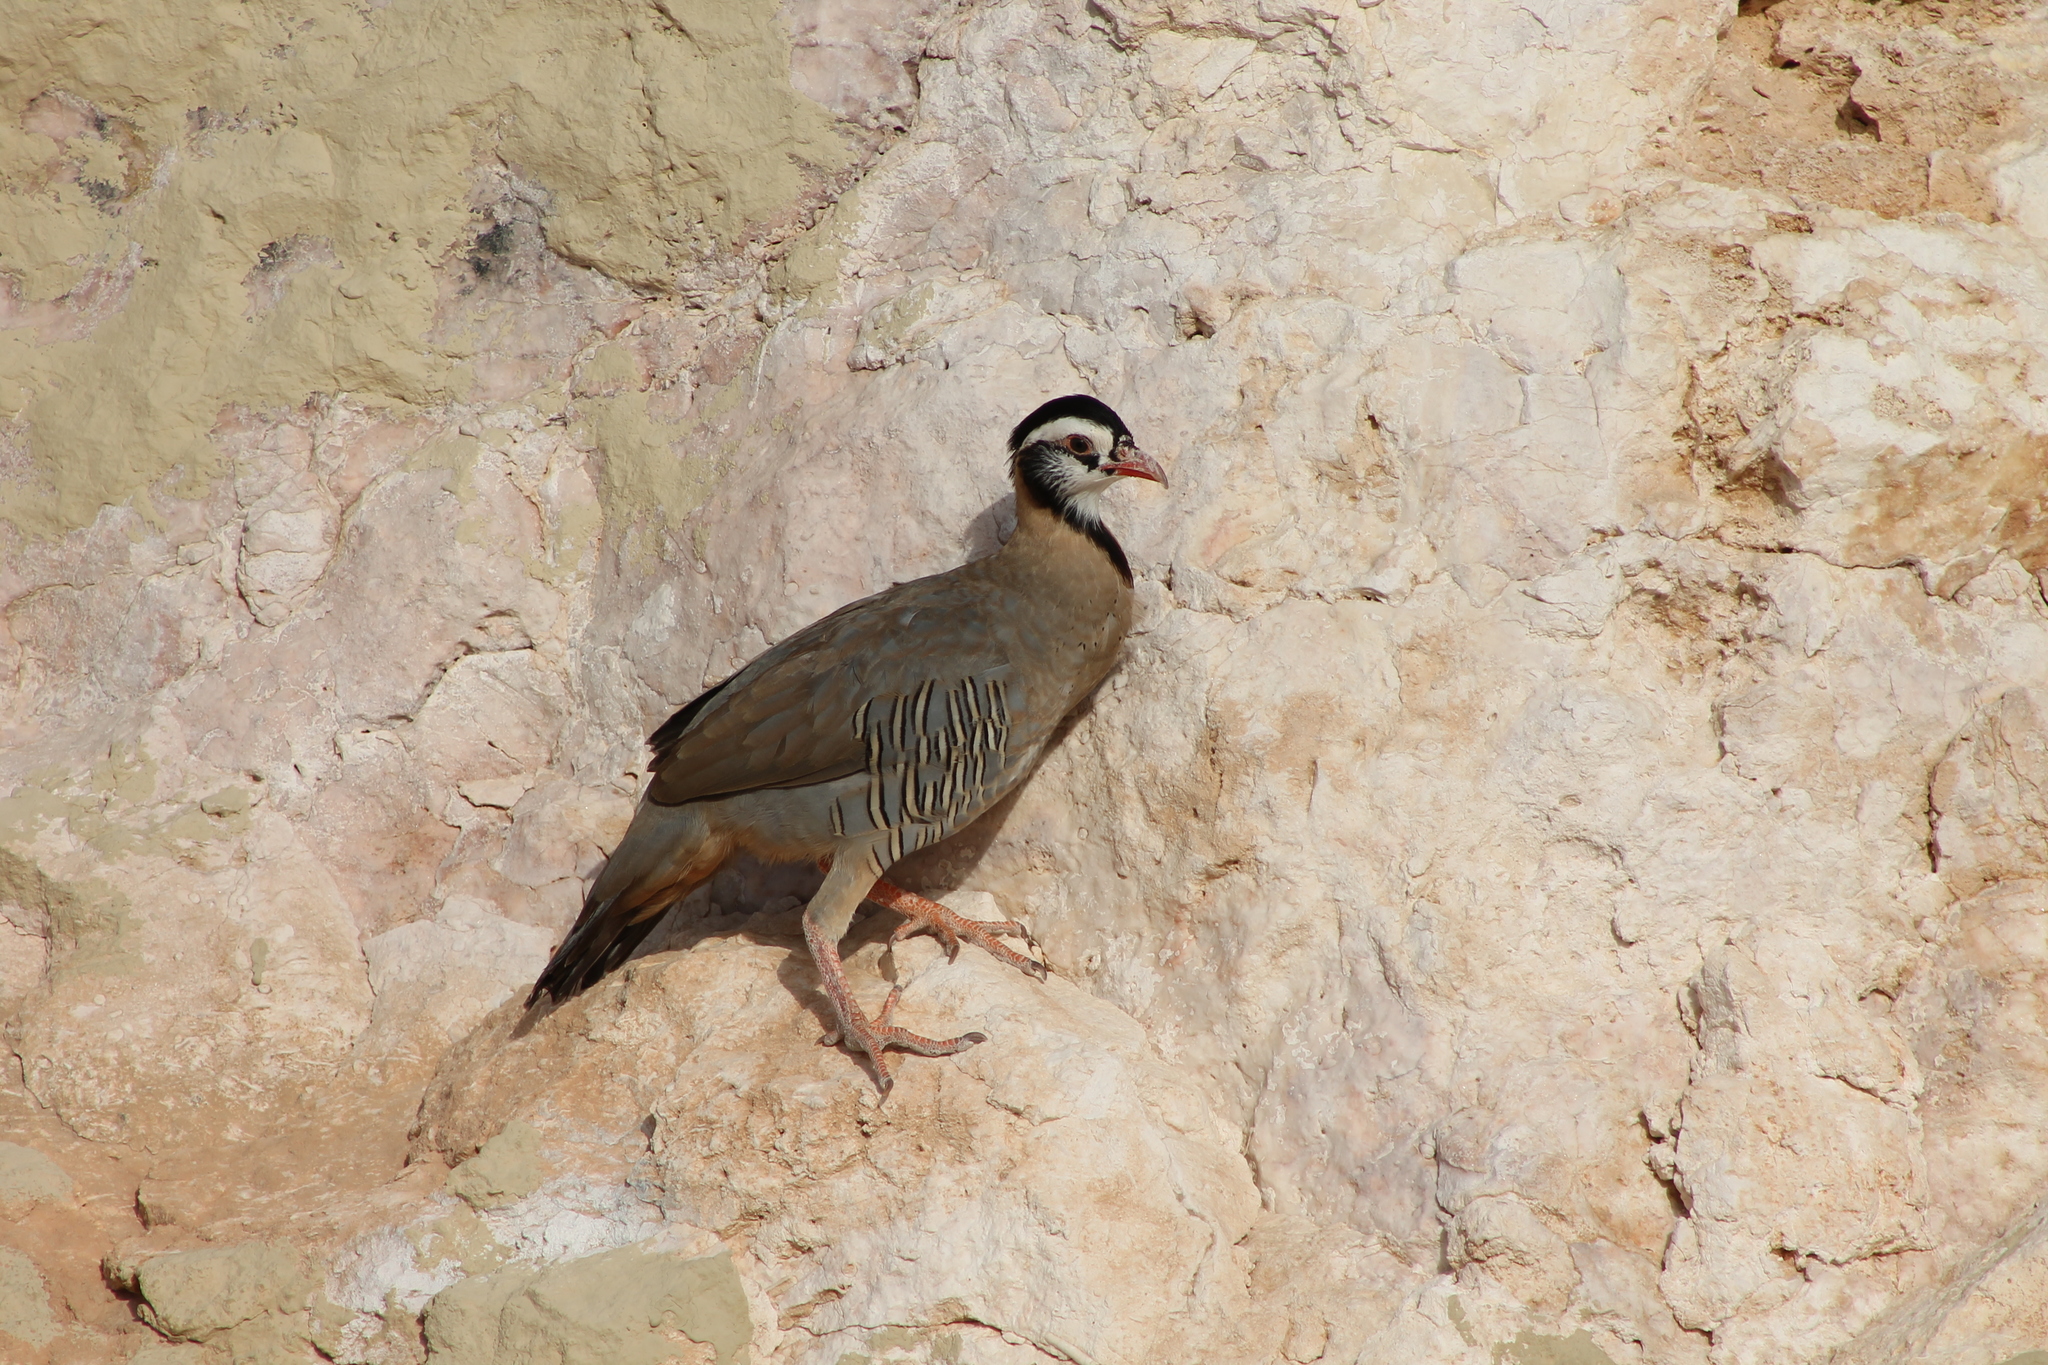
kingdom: Animalia
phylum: Chordata
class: Aves
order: Galliformes
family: Phasianidae
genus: Alectoris
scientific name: Alectoris melanocephala
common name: Arabian partridge
